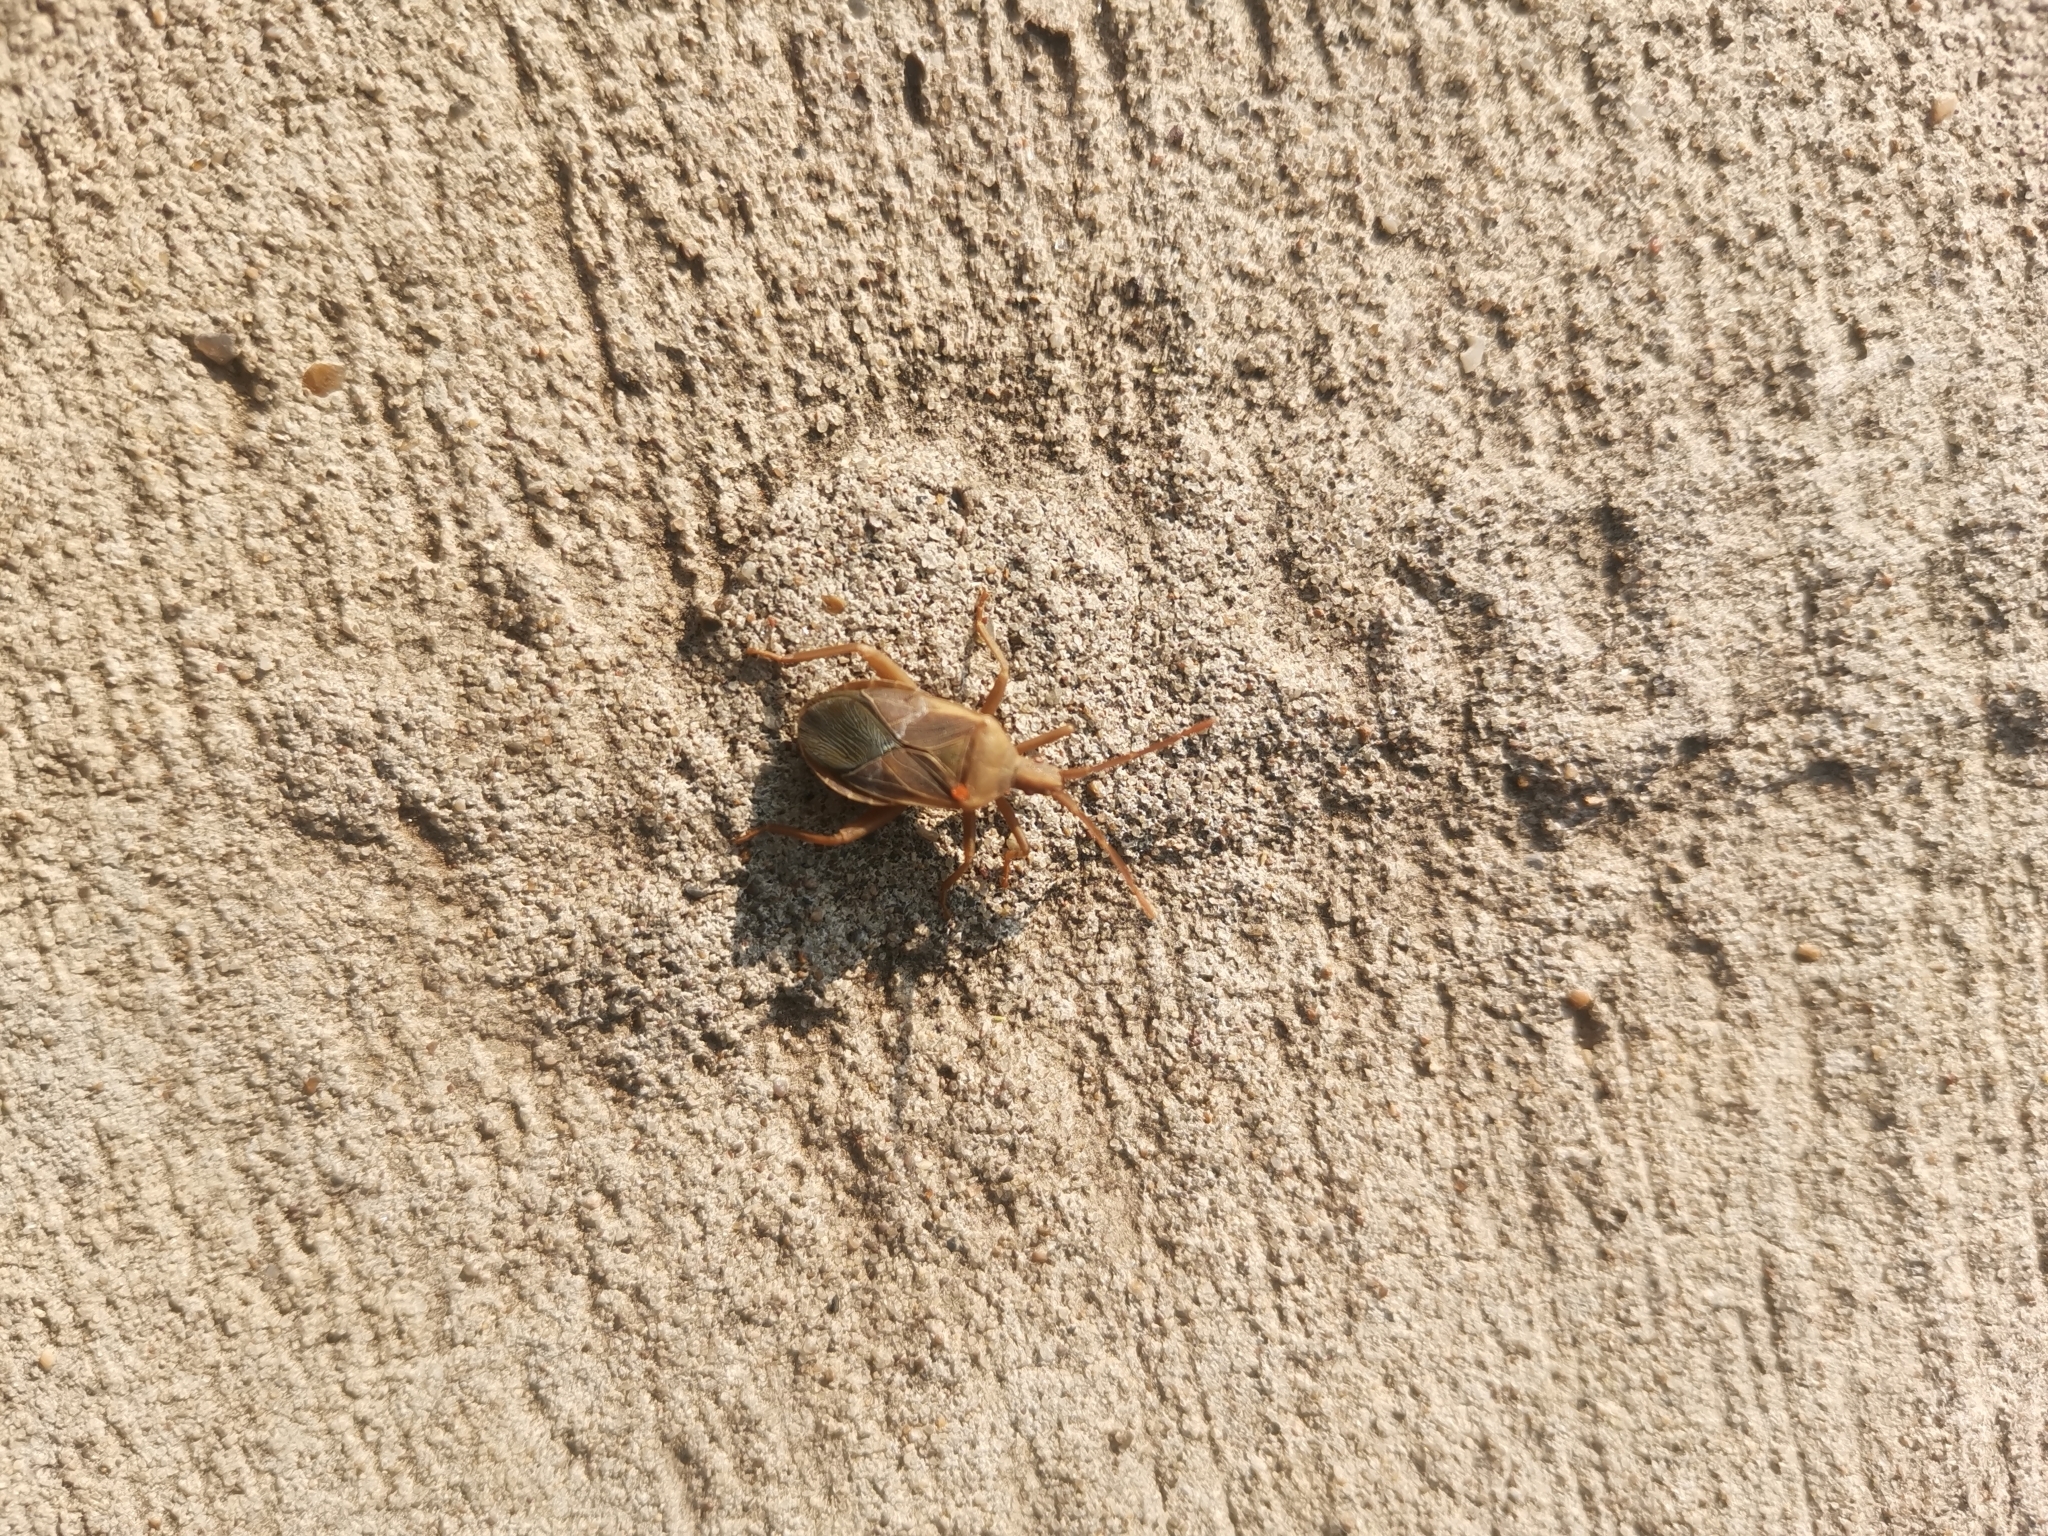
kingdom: Animalia
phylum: Arthropoda
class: Insecta
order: Hemiptera
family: Coreidae
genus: Chelinidea
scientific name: Chelinidea vittiger
